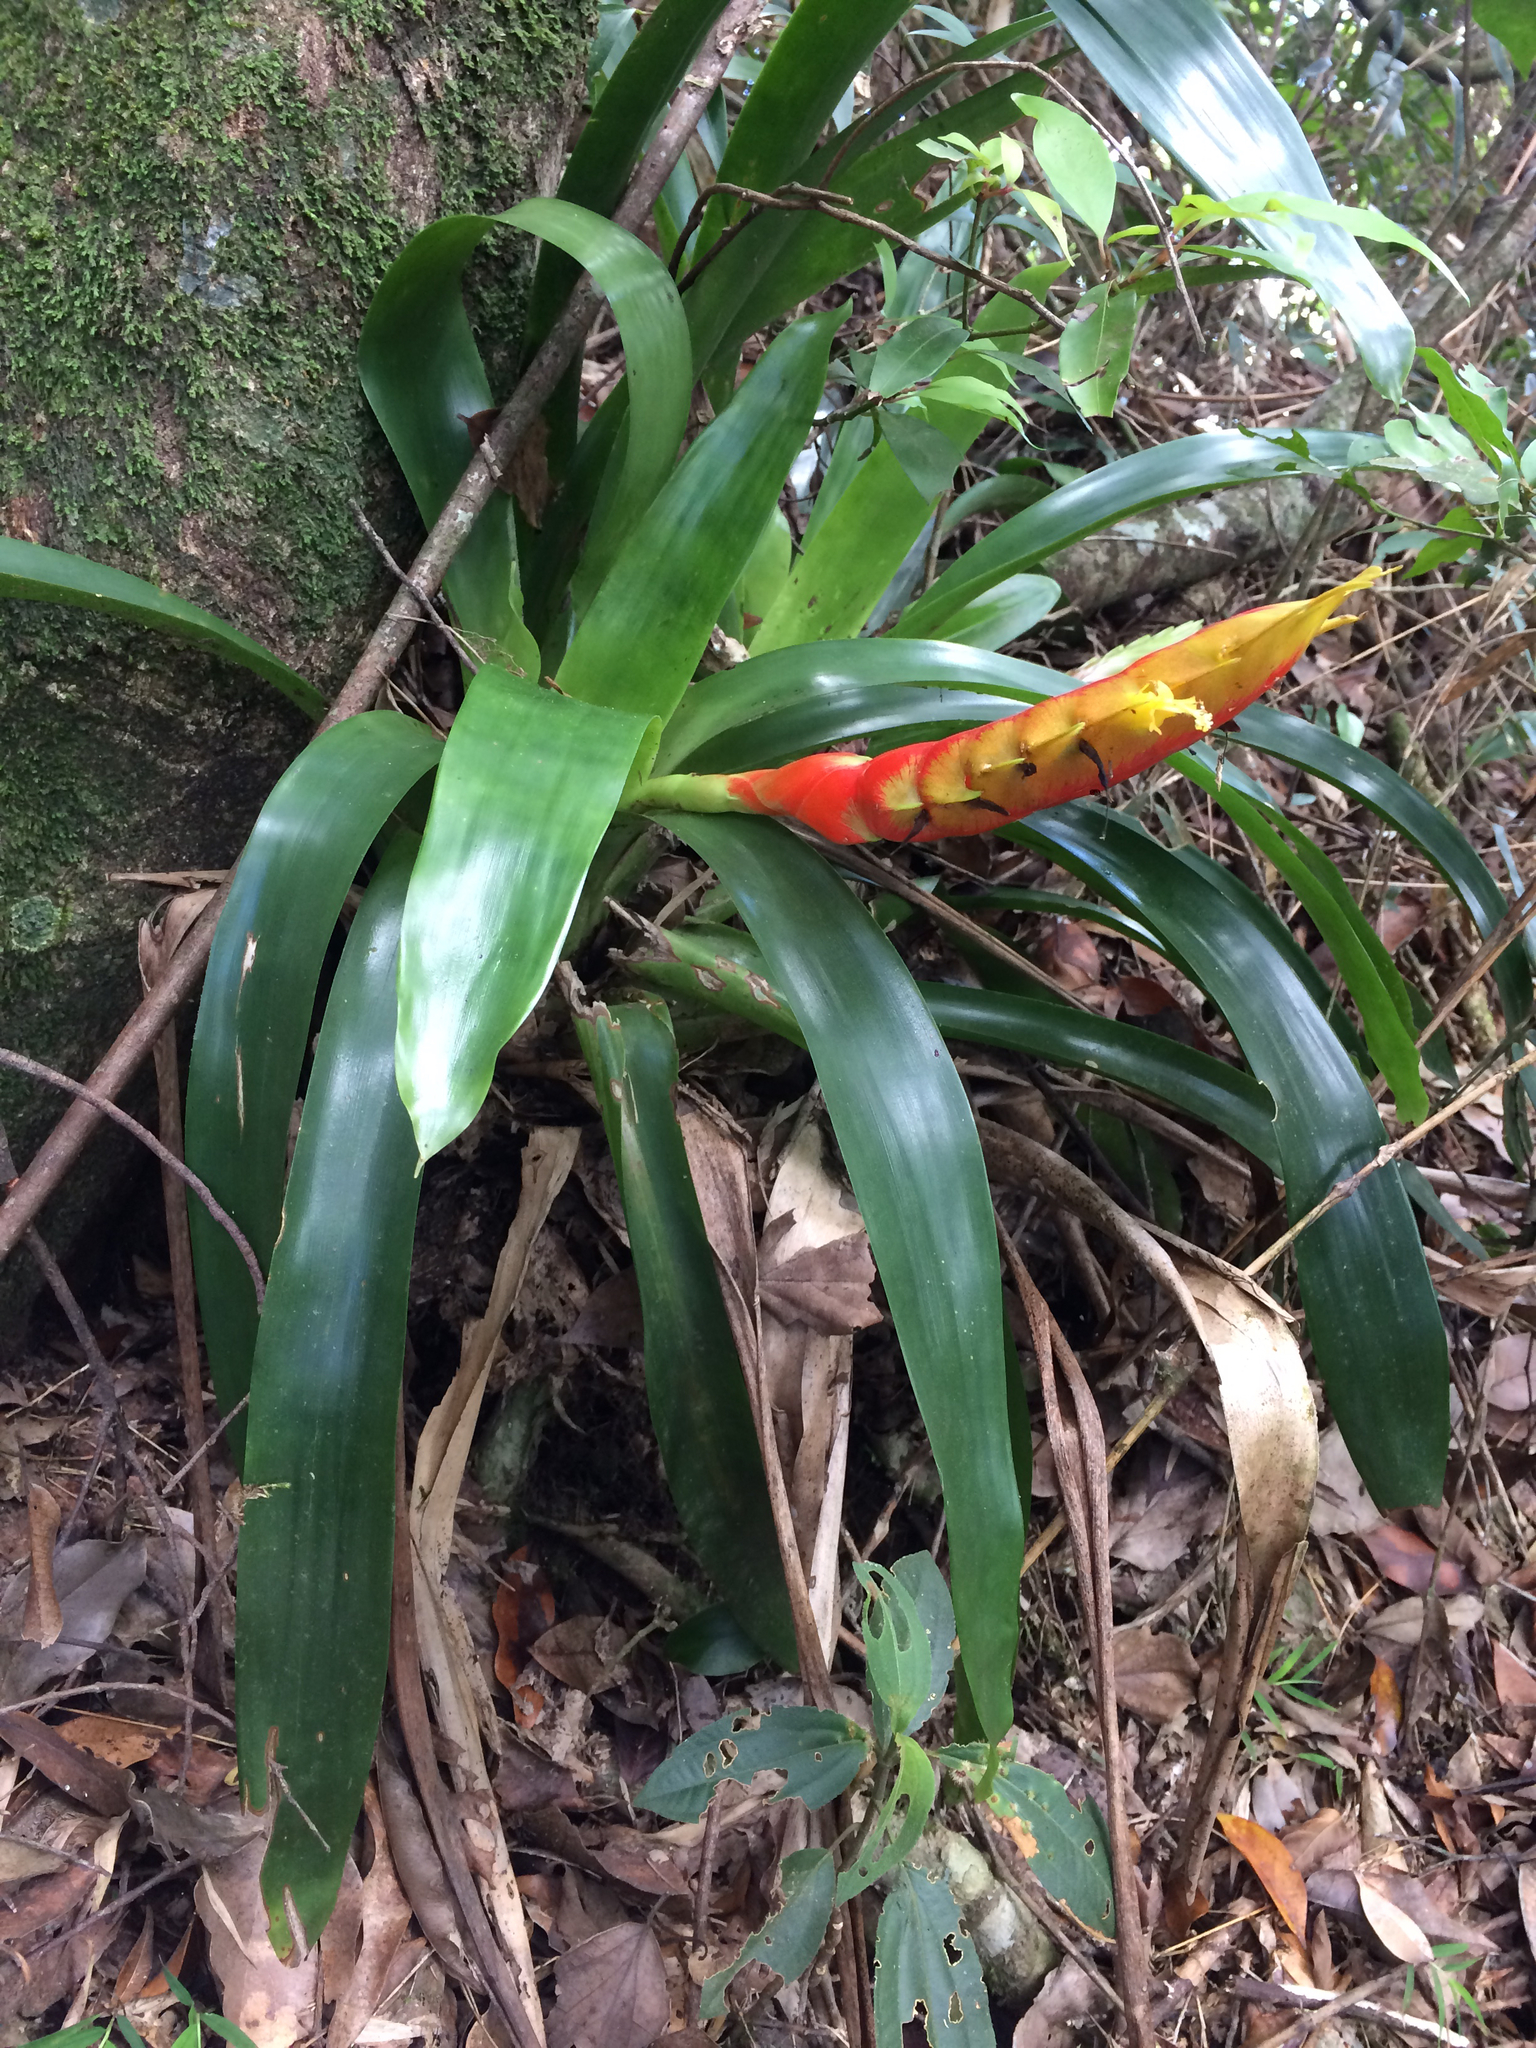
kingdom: Plantae
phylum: Tracheophyta
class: Liliopsida
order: Poales
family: Bromeliaceae
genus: Vriesea
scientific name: Vriesea inflata
